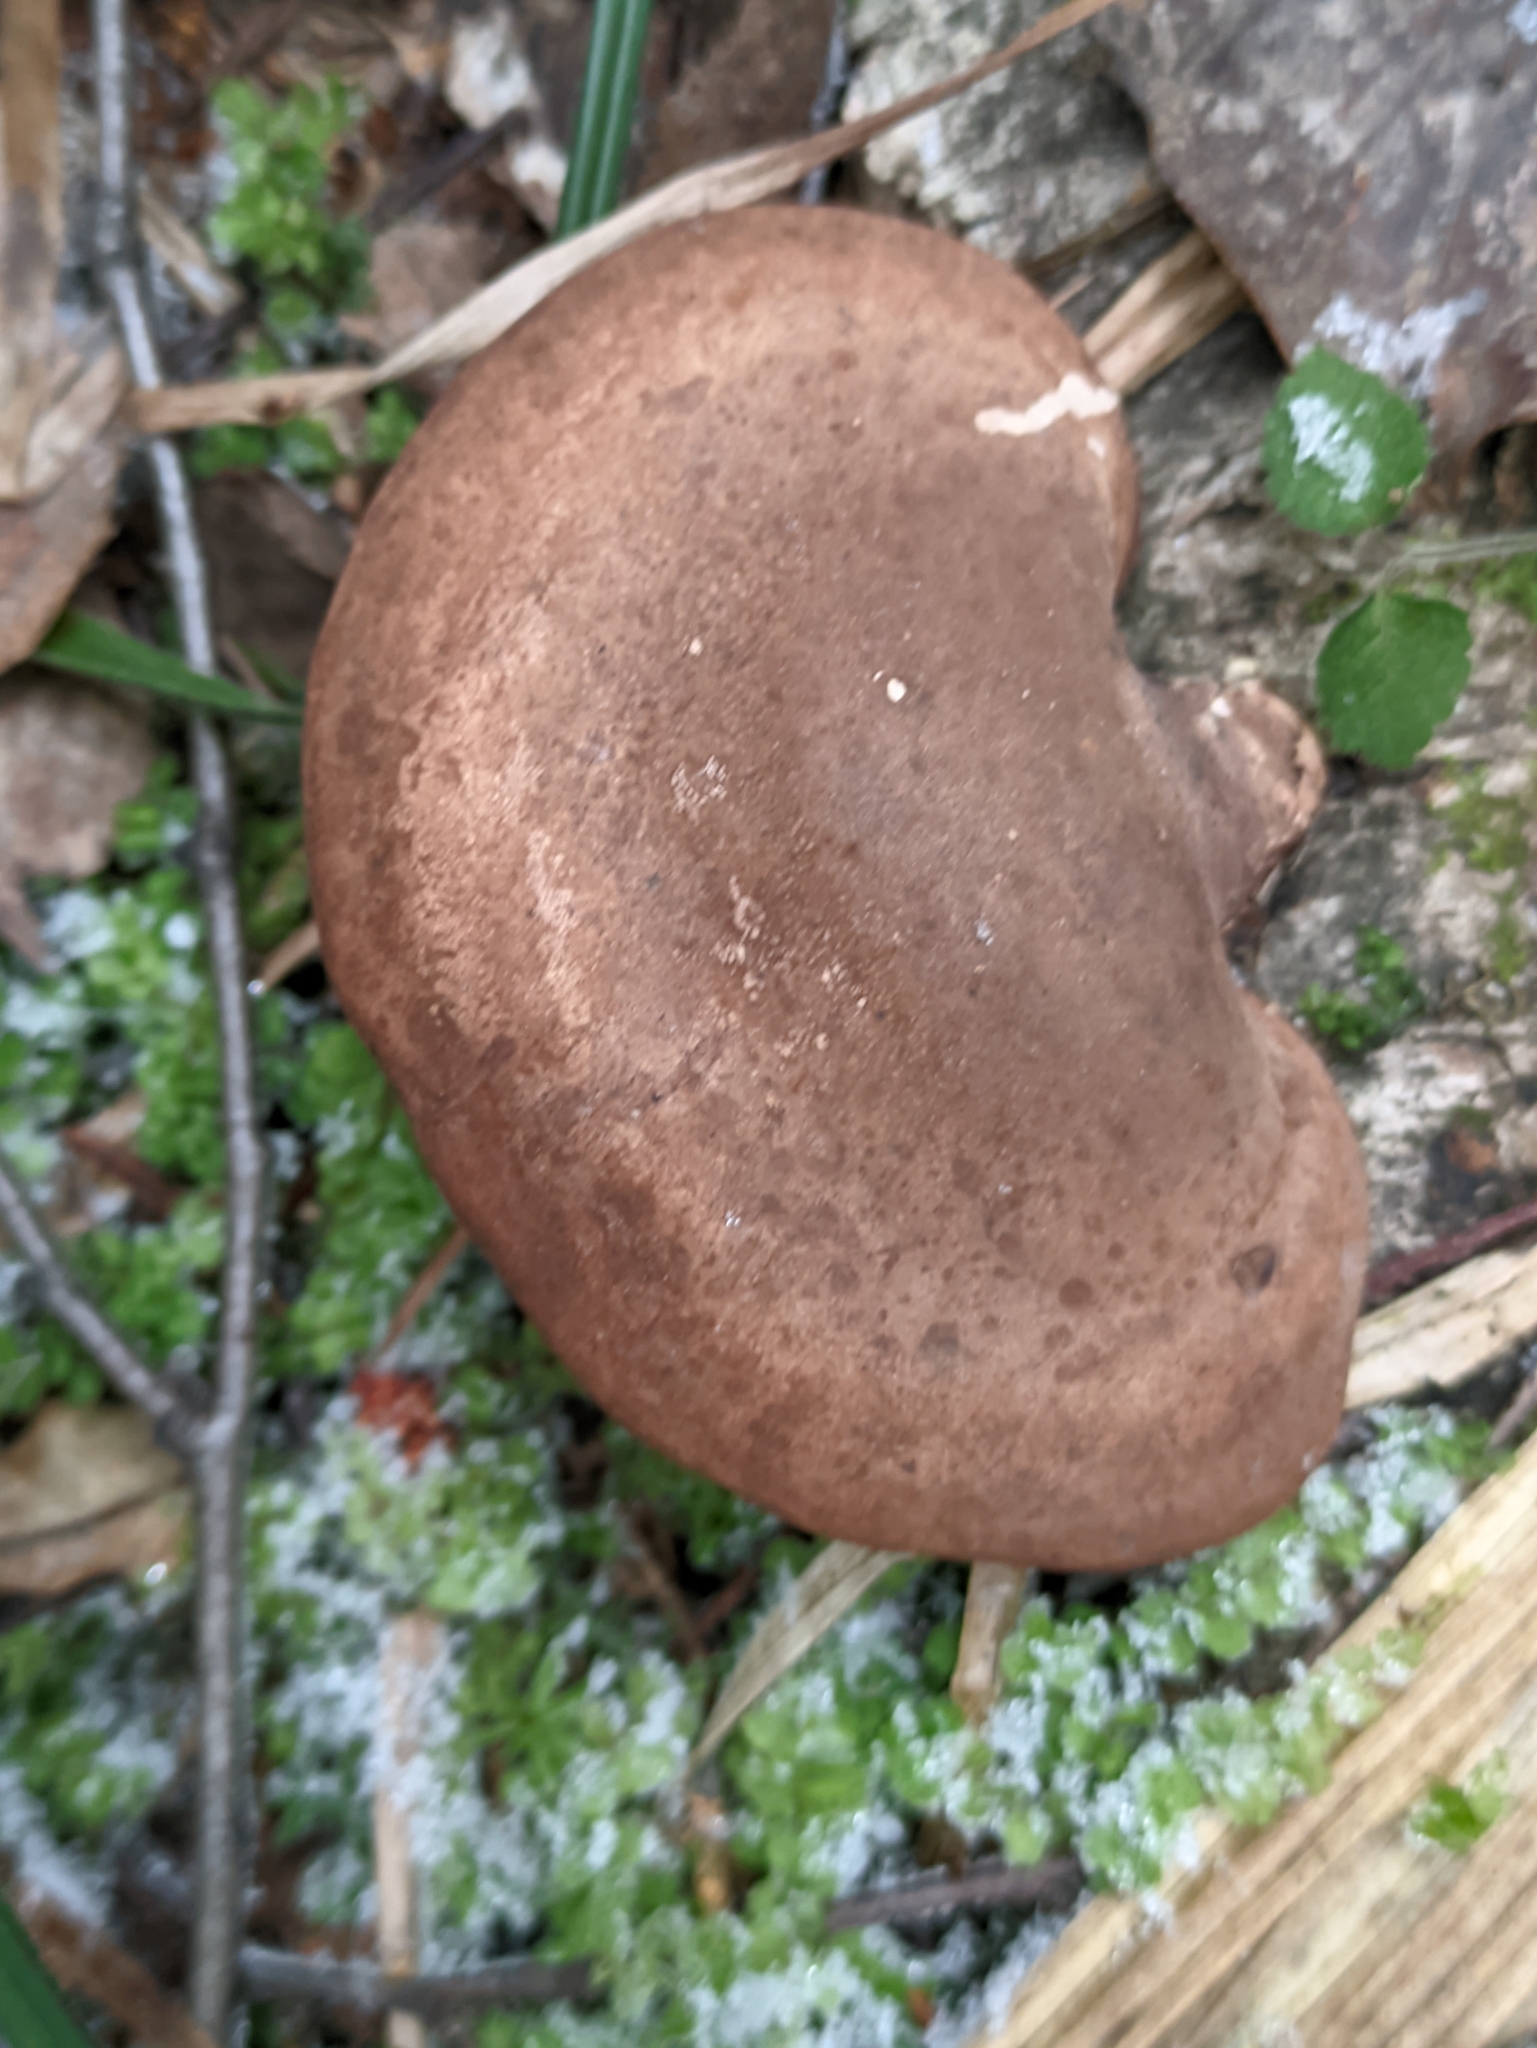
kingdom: Fungi
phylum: Basidiomycota
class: Agaricomycetes
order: Polyporales
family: Fomitopsidaceae
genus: Fomitopsis
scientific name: Fomitopsis betulina
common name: Birch polypore
